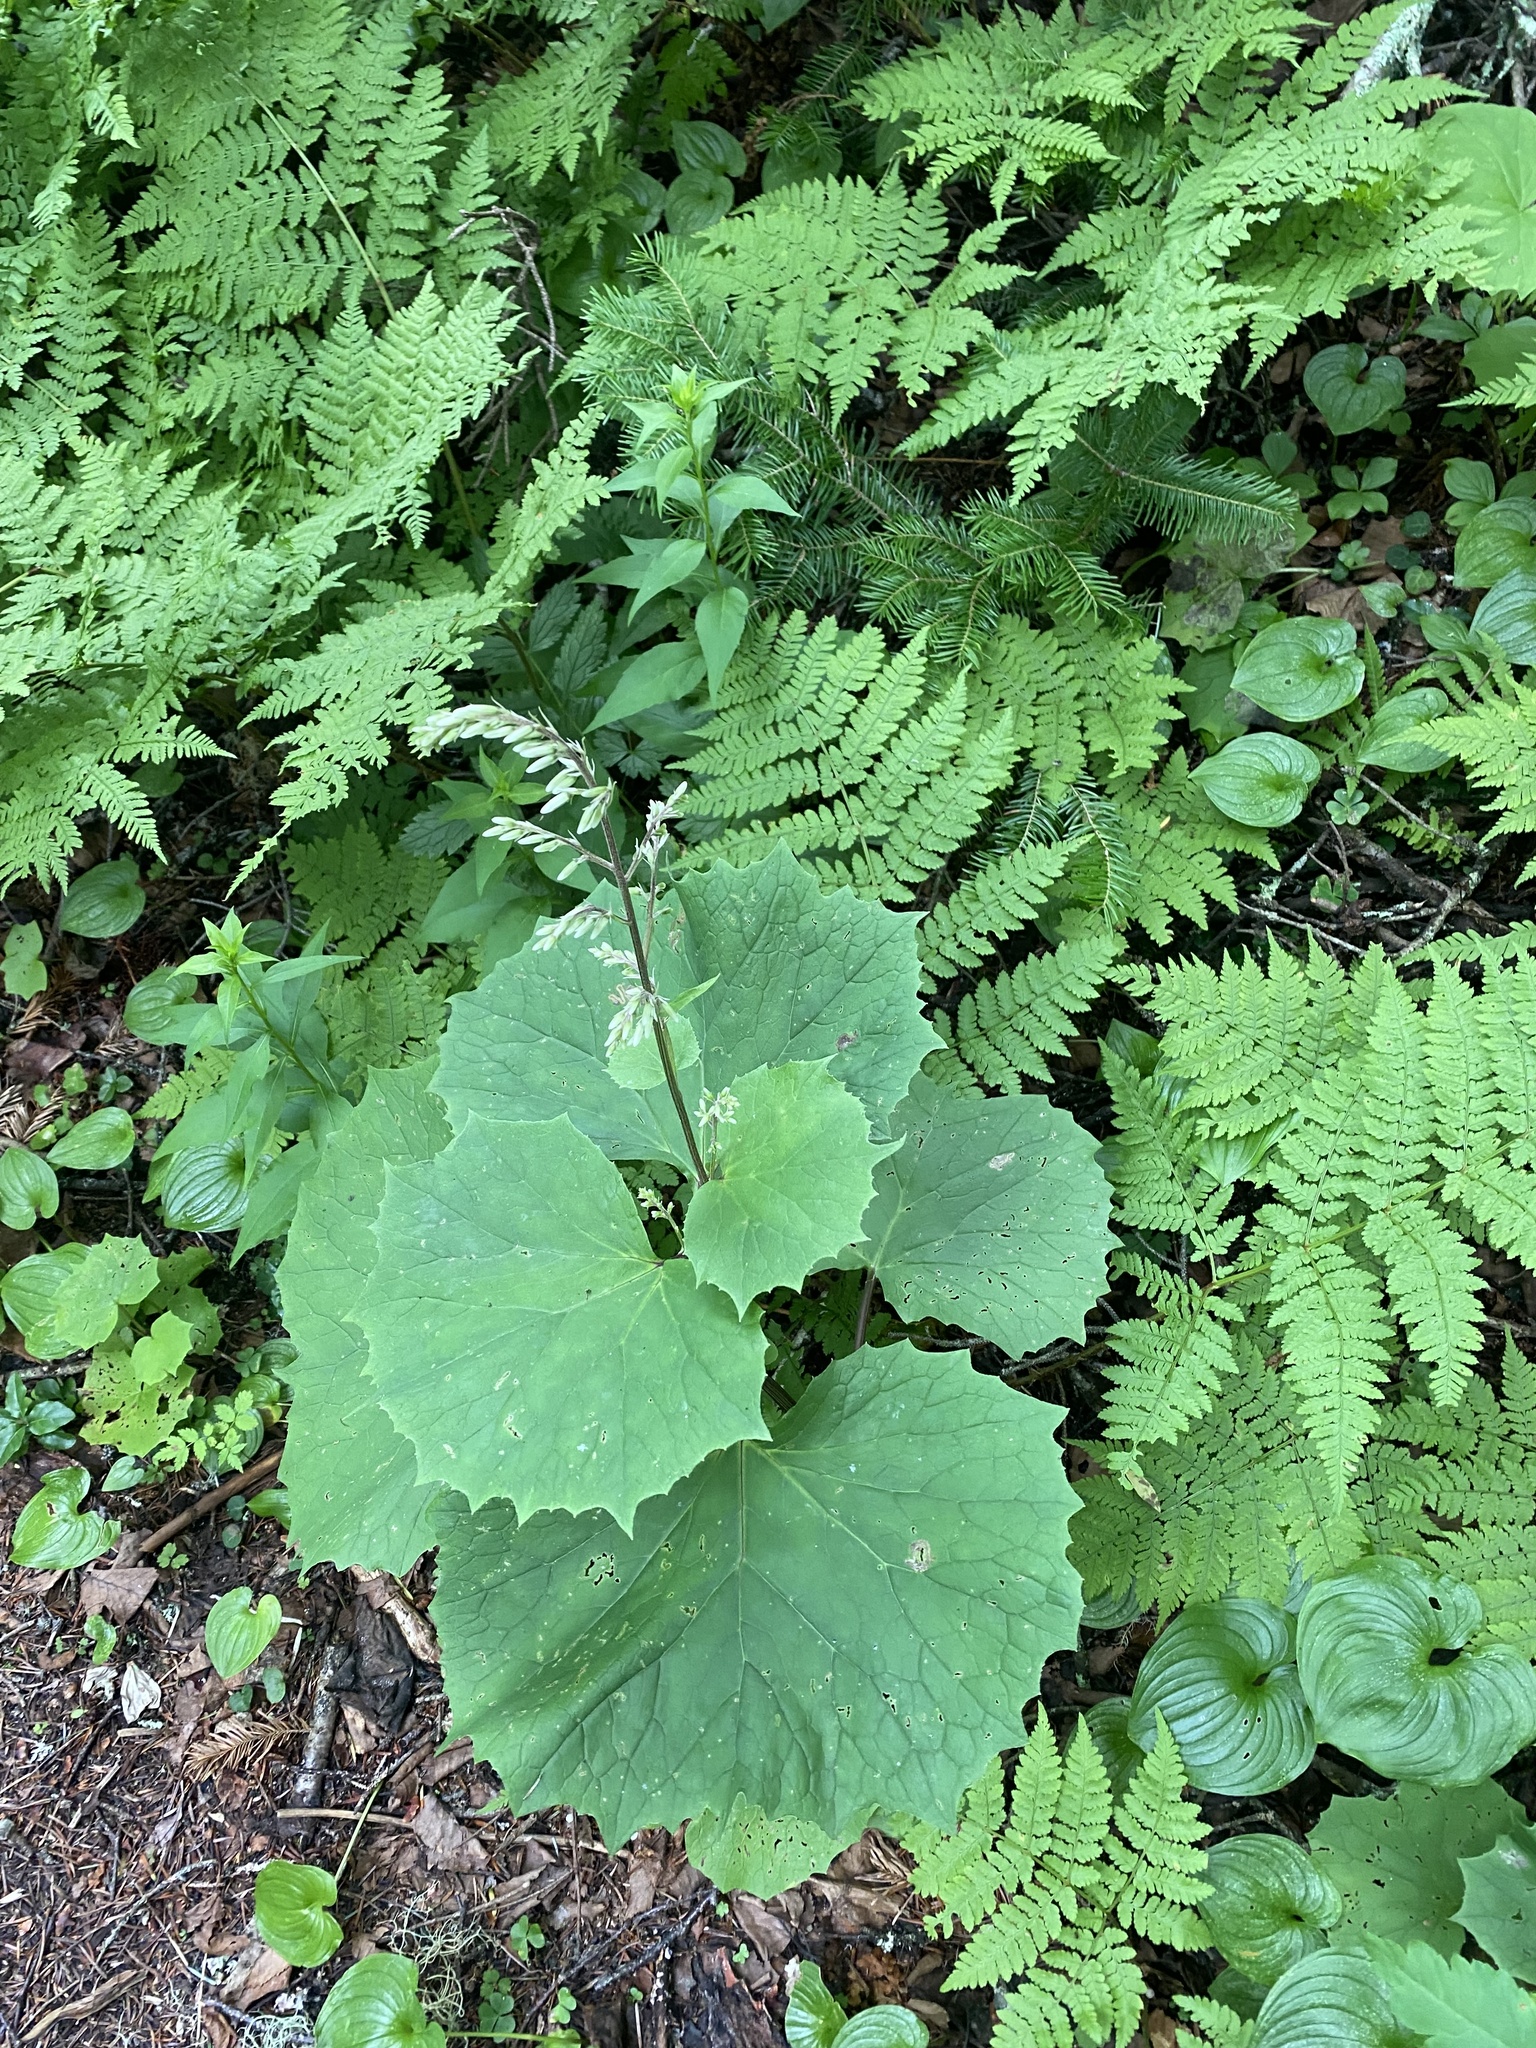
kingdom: Plantae
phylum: Tracheophyta
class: Magnoliopsida
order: Asterales
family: Asteraceae
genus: Parasenecio
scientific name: Parasenecio kamtschaticus
